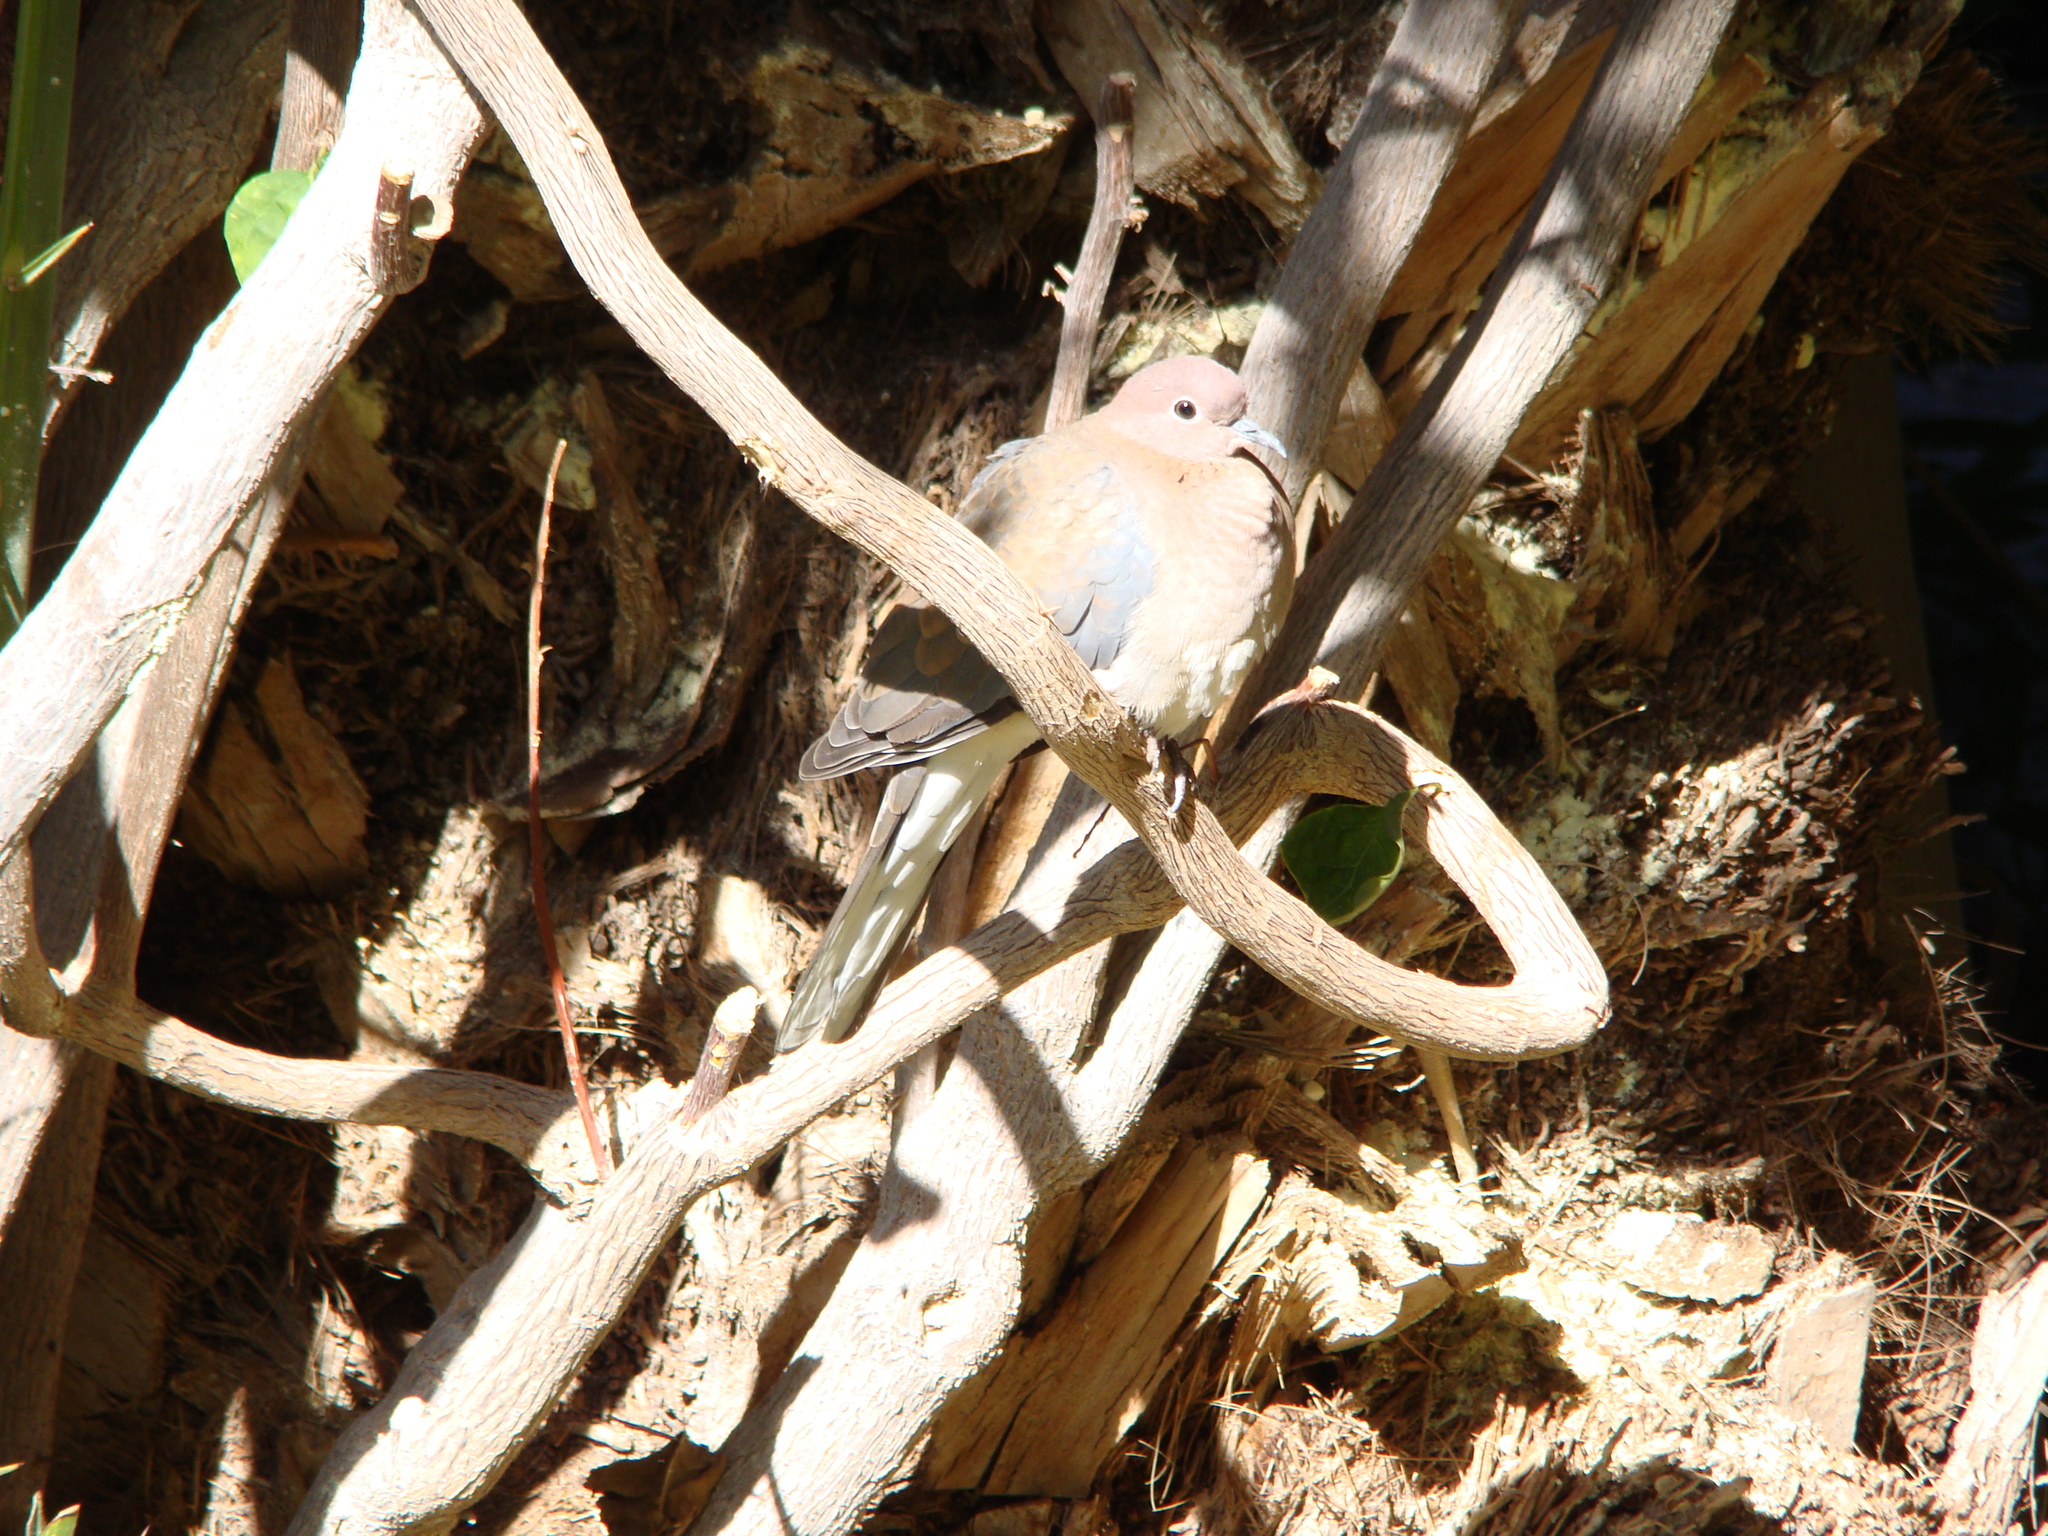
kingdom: Animalia
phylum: Chordata
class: Aves
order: Columbiformes
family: Columbidae
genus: Spilopelia
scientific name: Spilopelia senegalensis
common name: Laughing dove
